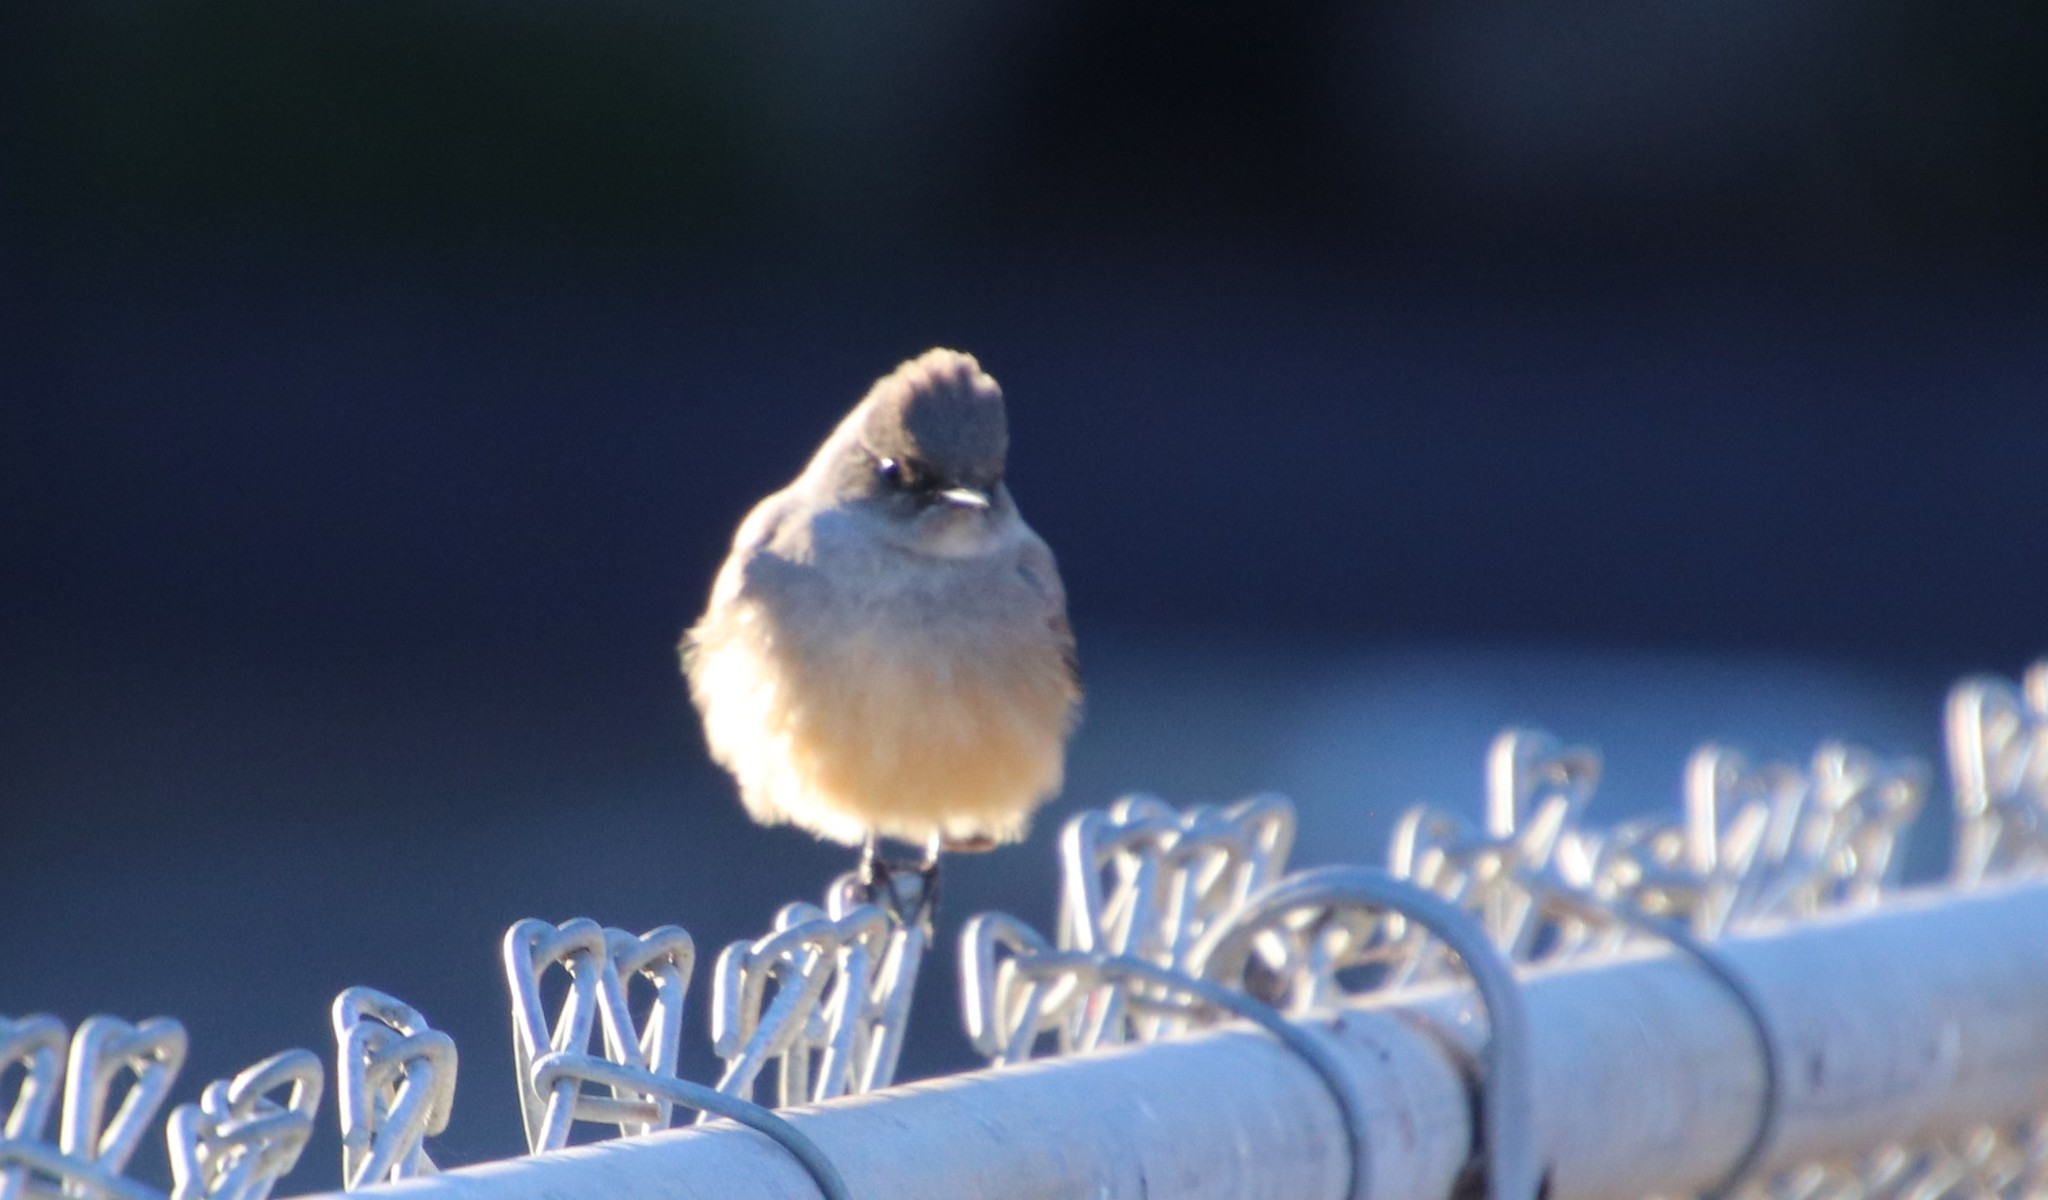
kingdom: Animalia
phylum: Chordata
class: Aves
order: Passeriformes
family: Tyrannidae
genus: Sayornis
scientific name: Sayornis saya
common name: Say's phoebe
